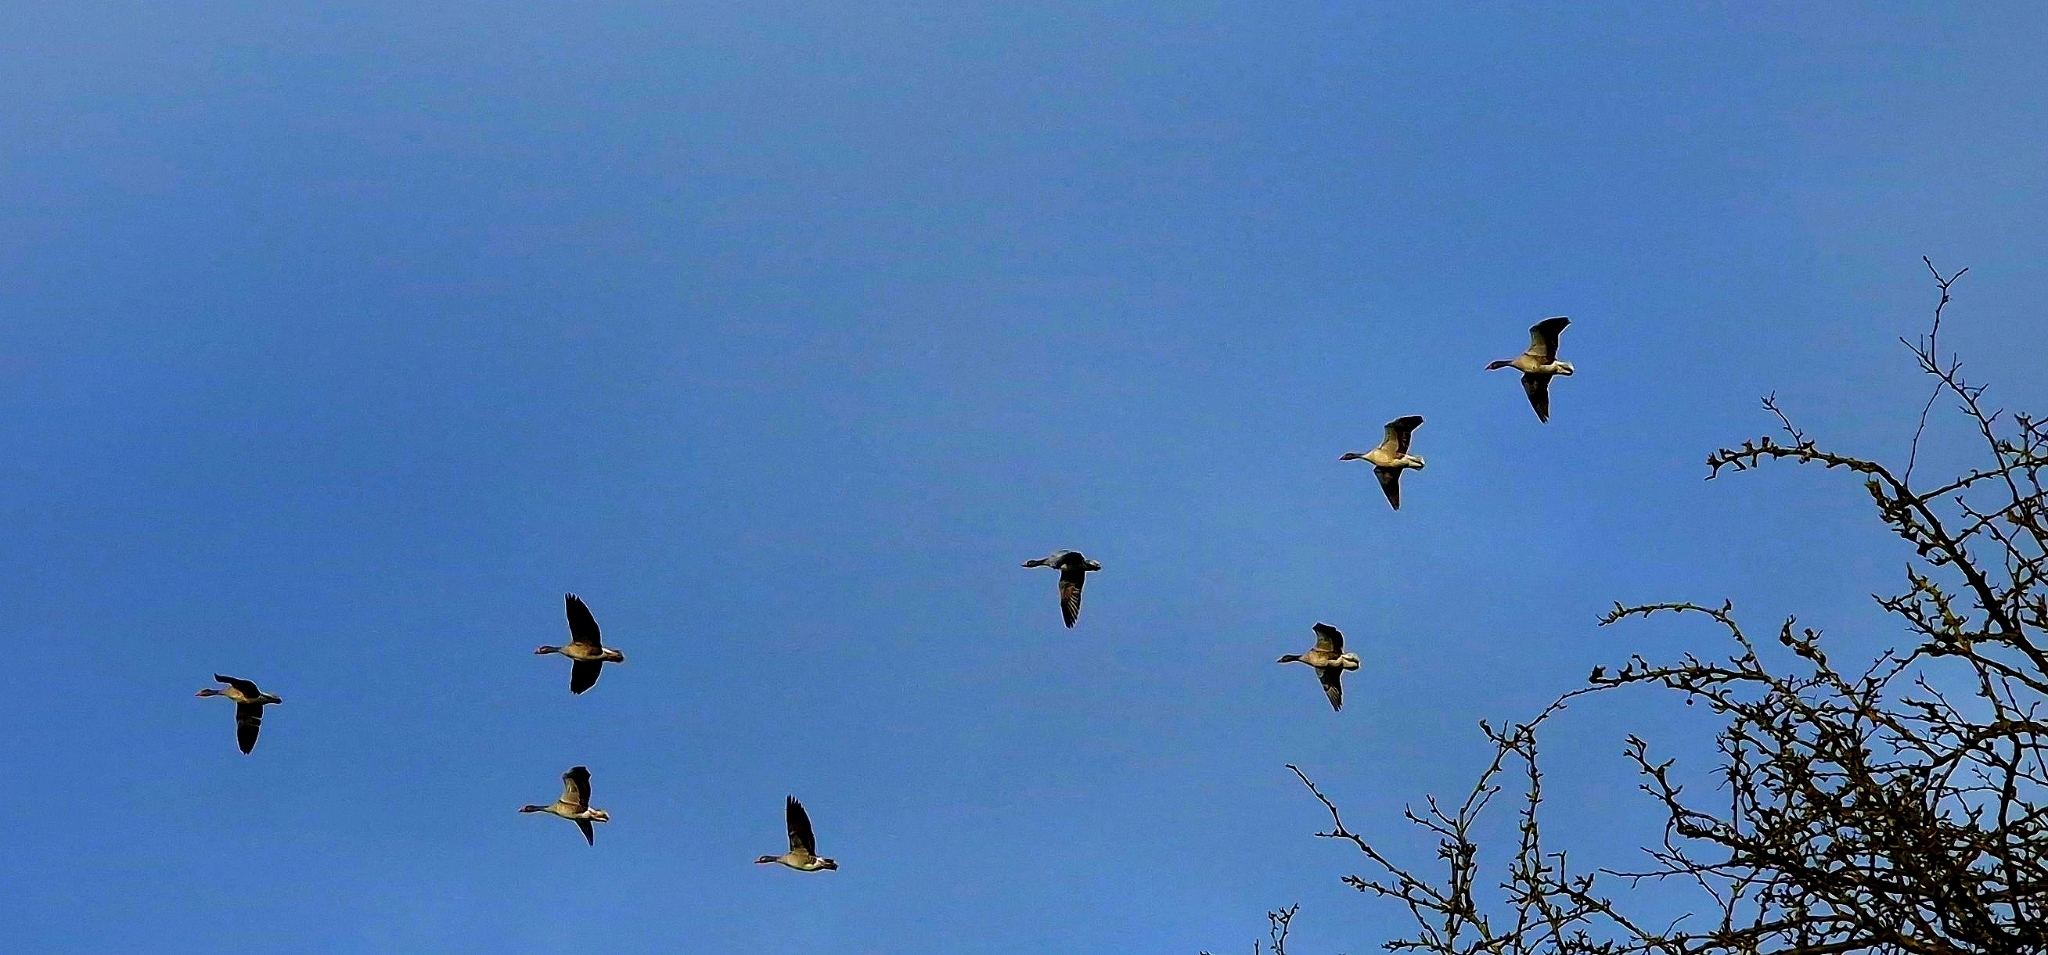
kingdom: Animalia
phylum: Chordata
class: Aves
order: Anseriformes
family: Anatidae
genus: Anser
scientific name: Anser anser
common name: Greylag goose
